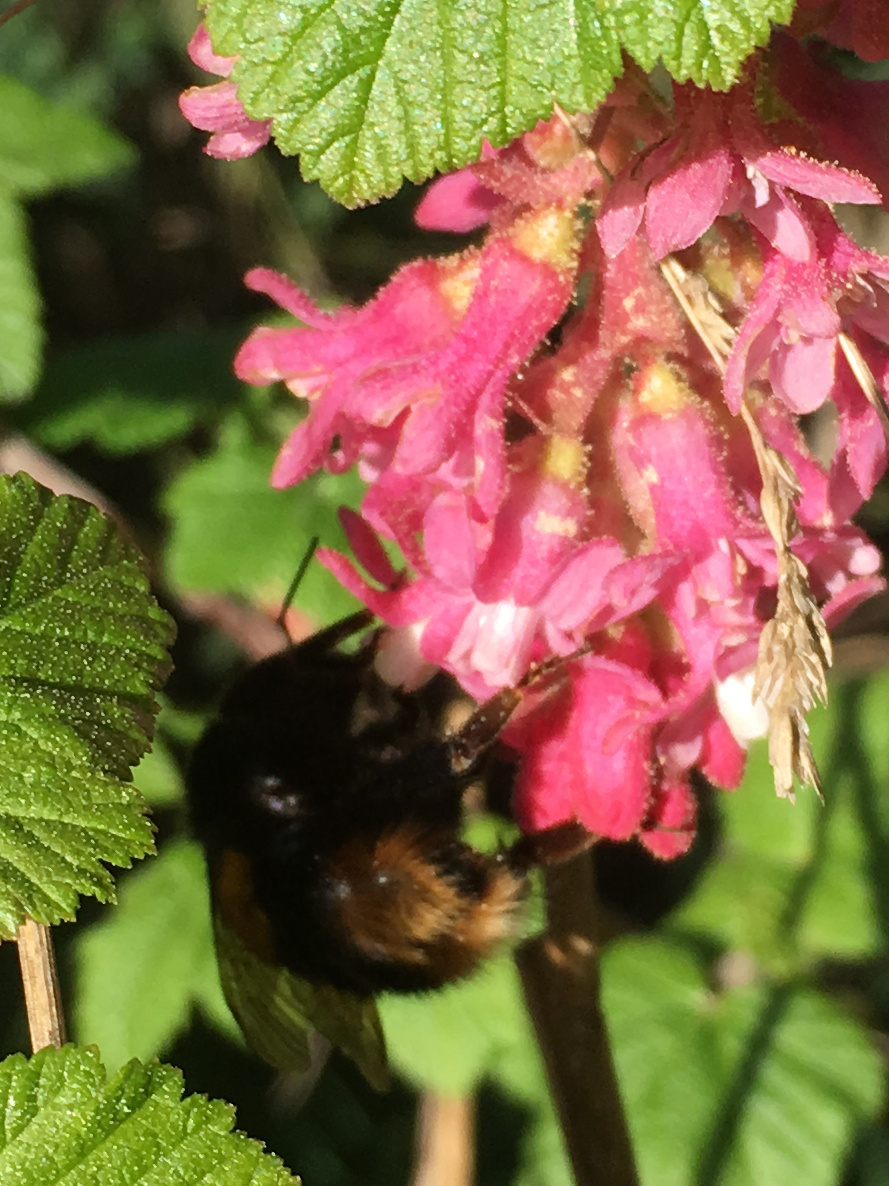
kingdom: Animalia
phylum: Arthropoda
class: Insecta
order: Hymenoptera
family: Apidae
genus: Bombus
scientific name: Bombus terrestris
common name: Buff-tailed bumblebee
